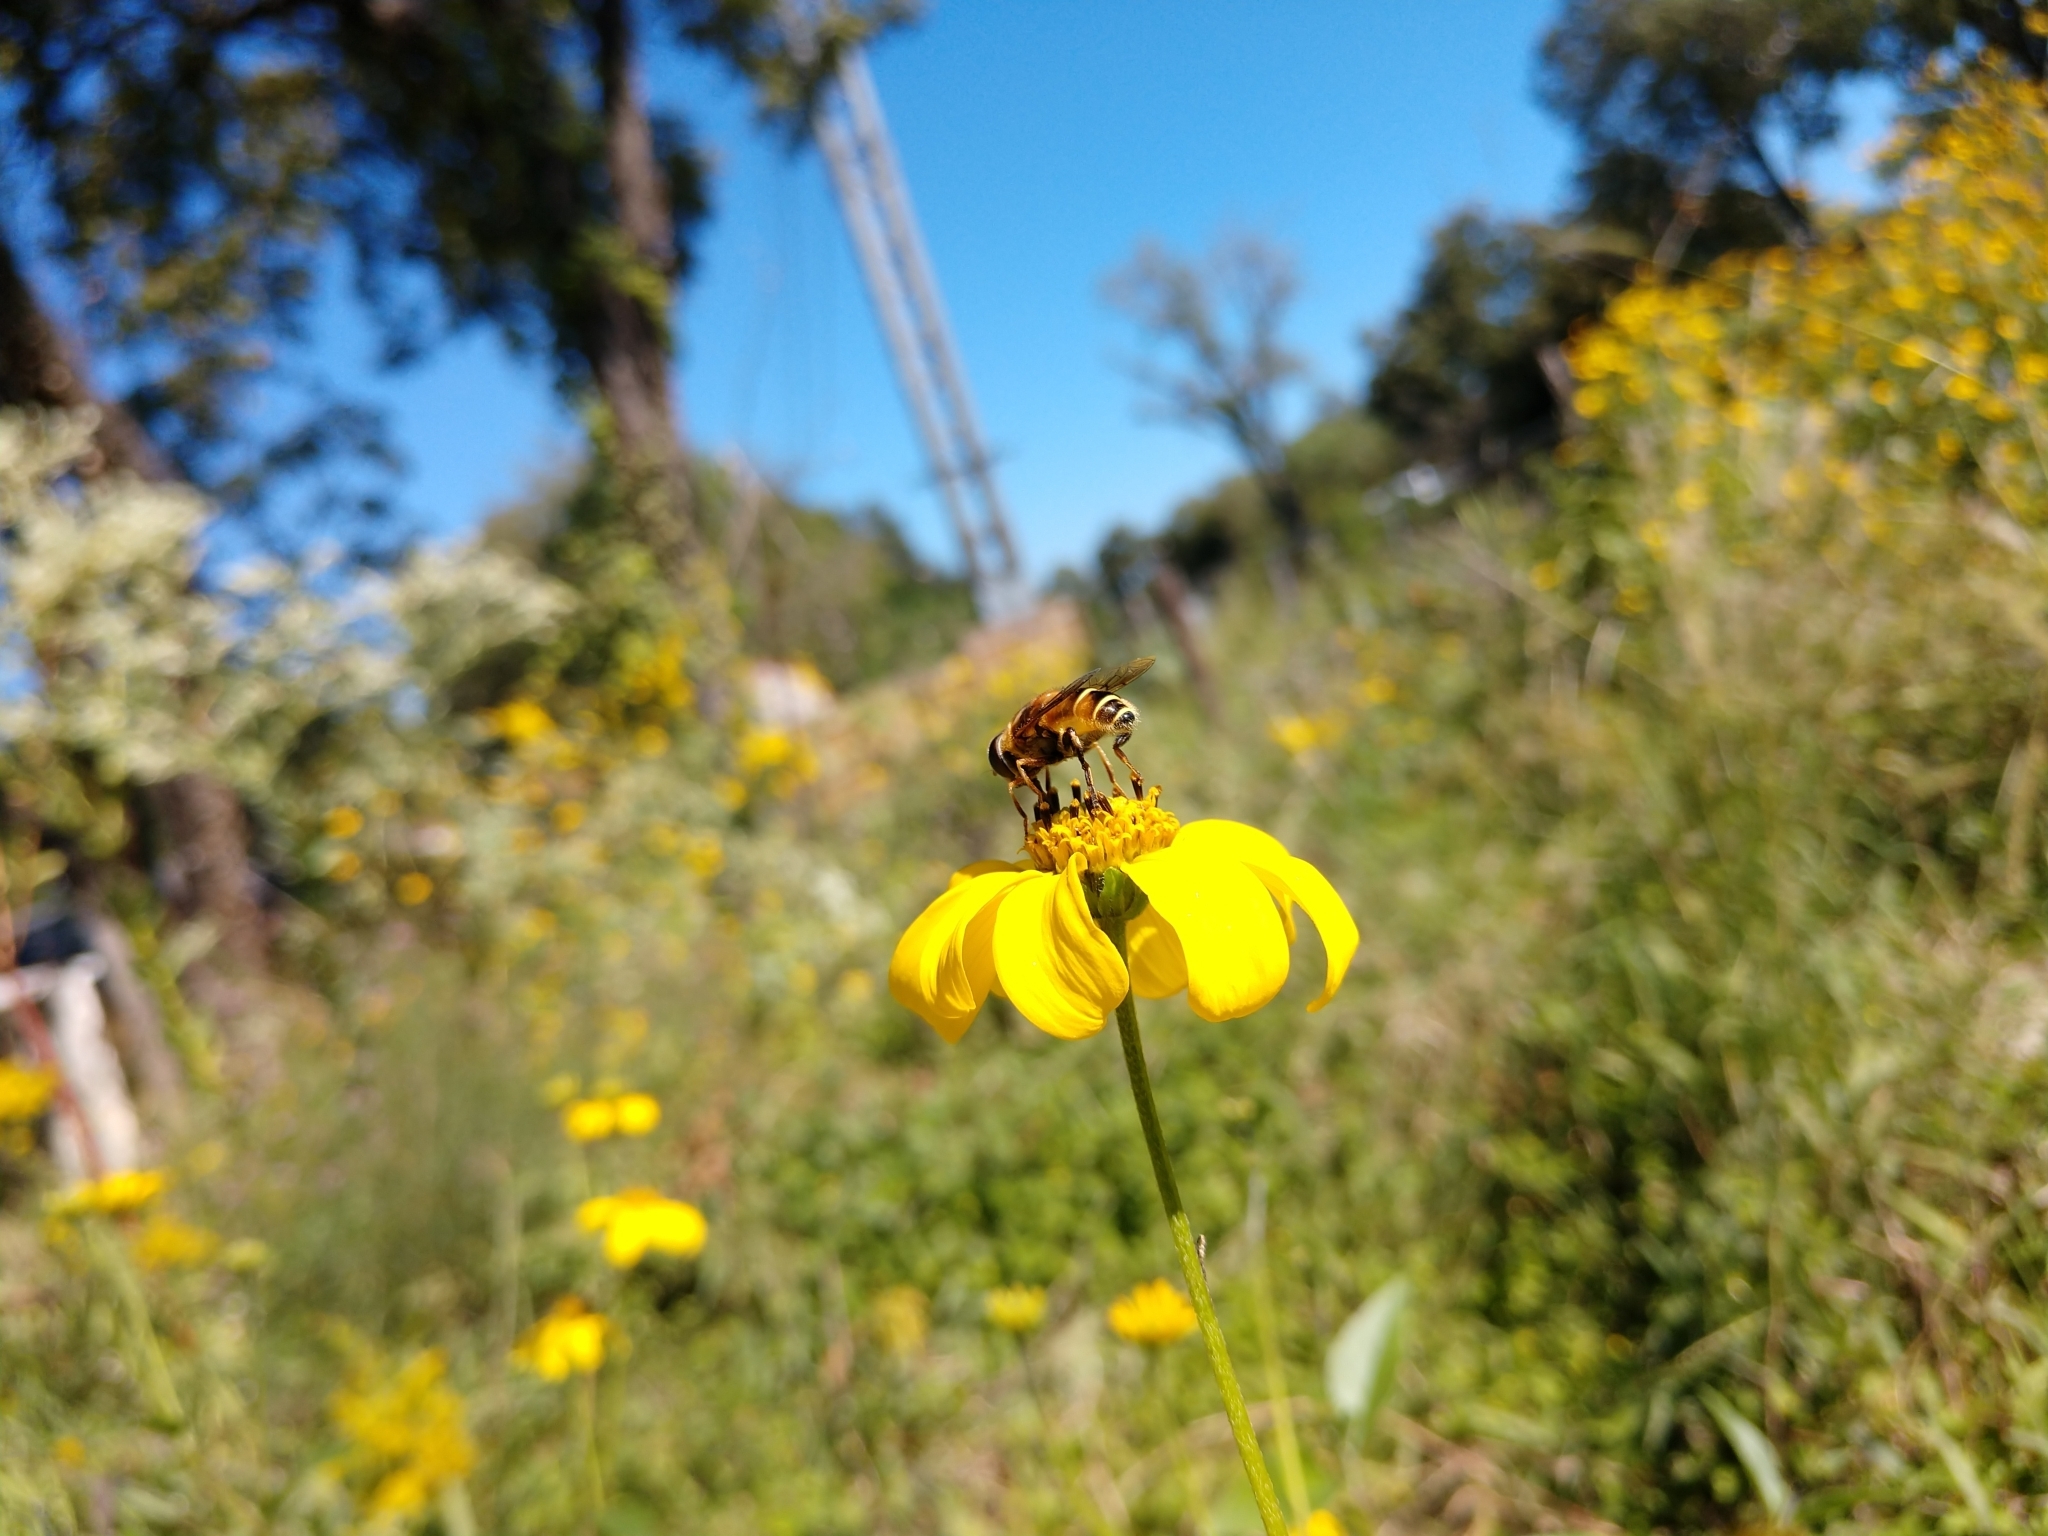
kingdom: Animalia
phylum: Arthropoda
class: Insecta
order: Diptera
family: Syrphidae
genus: Palpada
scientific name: Palpada vinetorum
